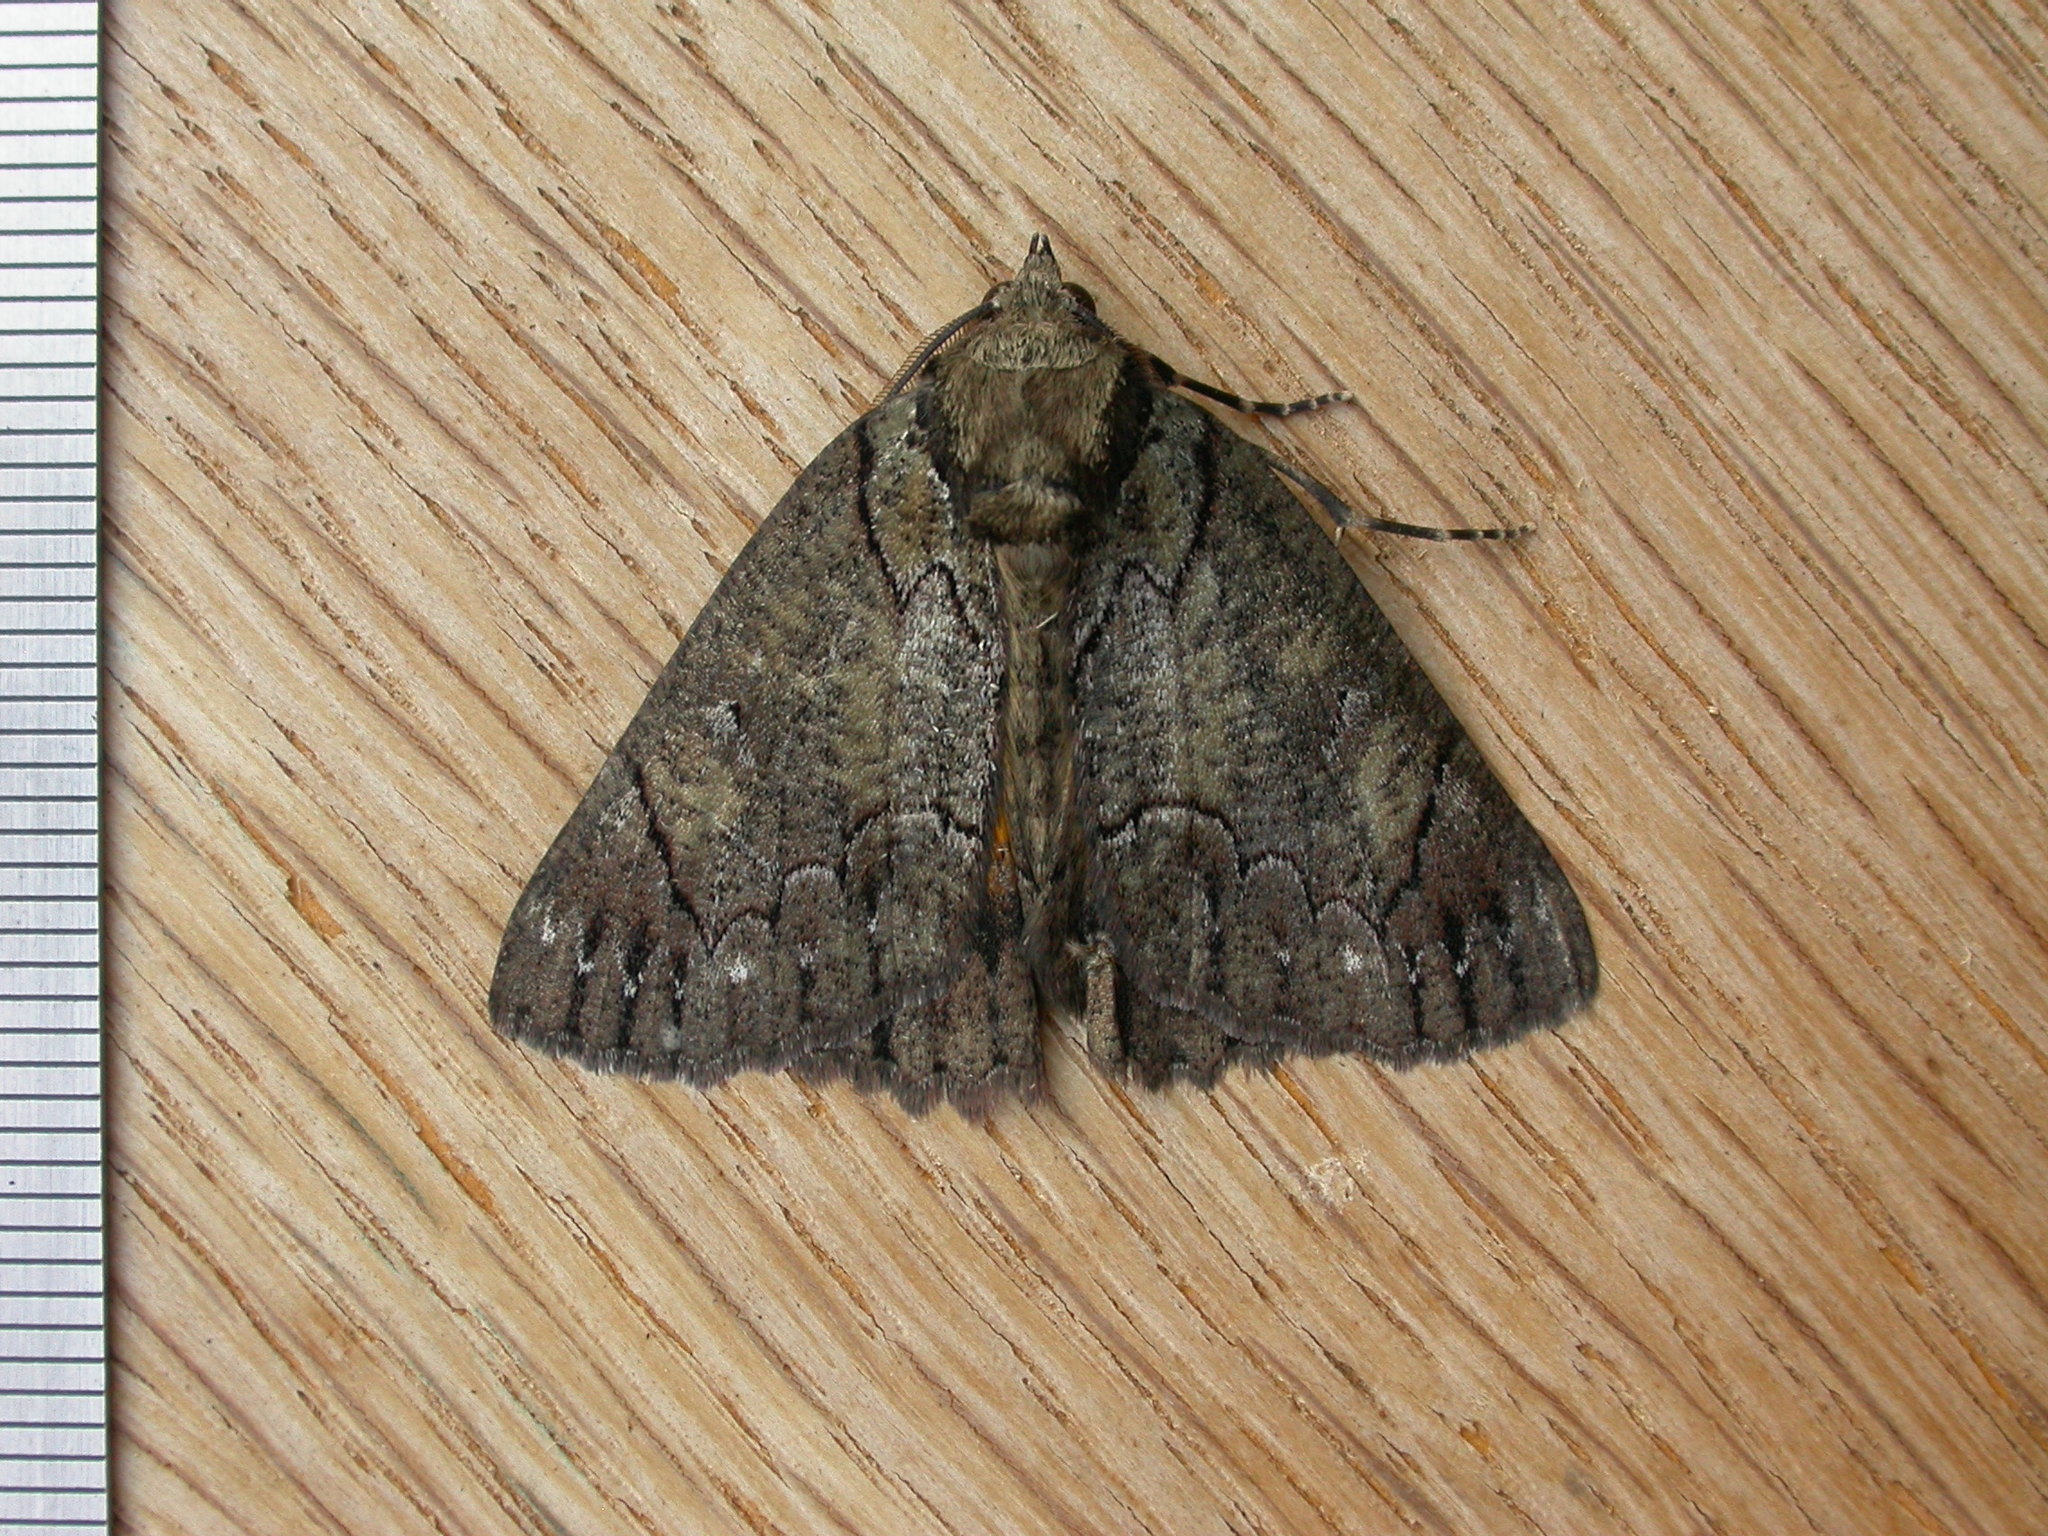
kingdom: Animalia
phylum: Arthropoda
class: Insecta
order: Lepidoptera
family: Geometridae
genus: Heliomystis
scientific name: Heliomystis electrica
